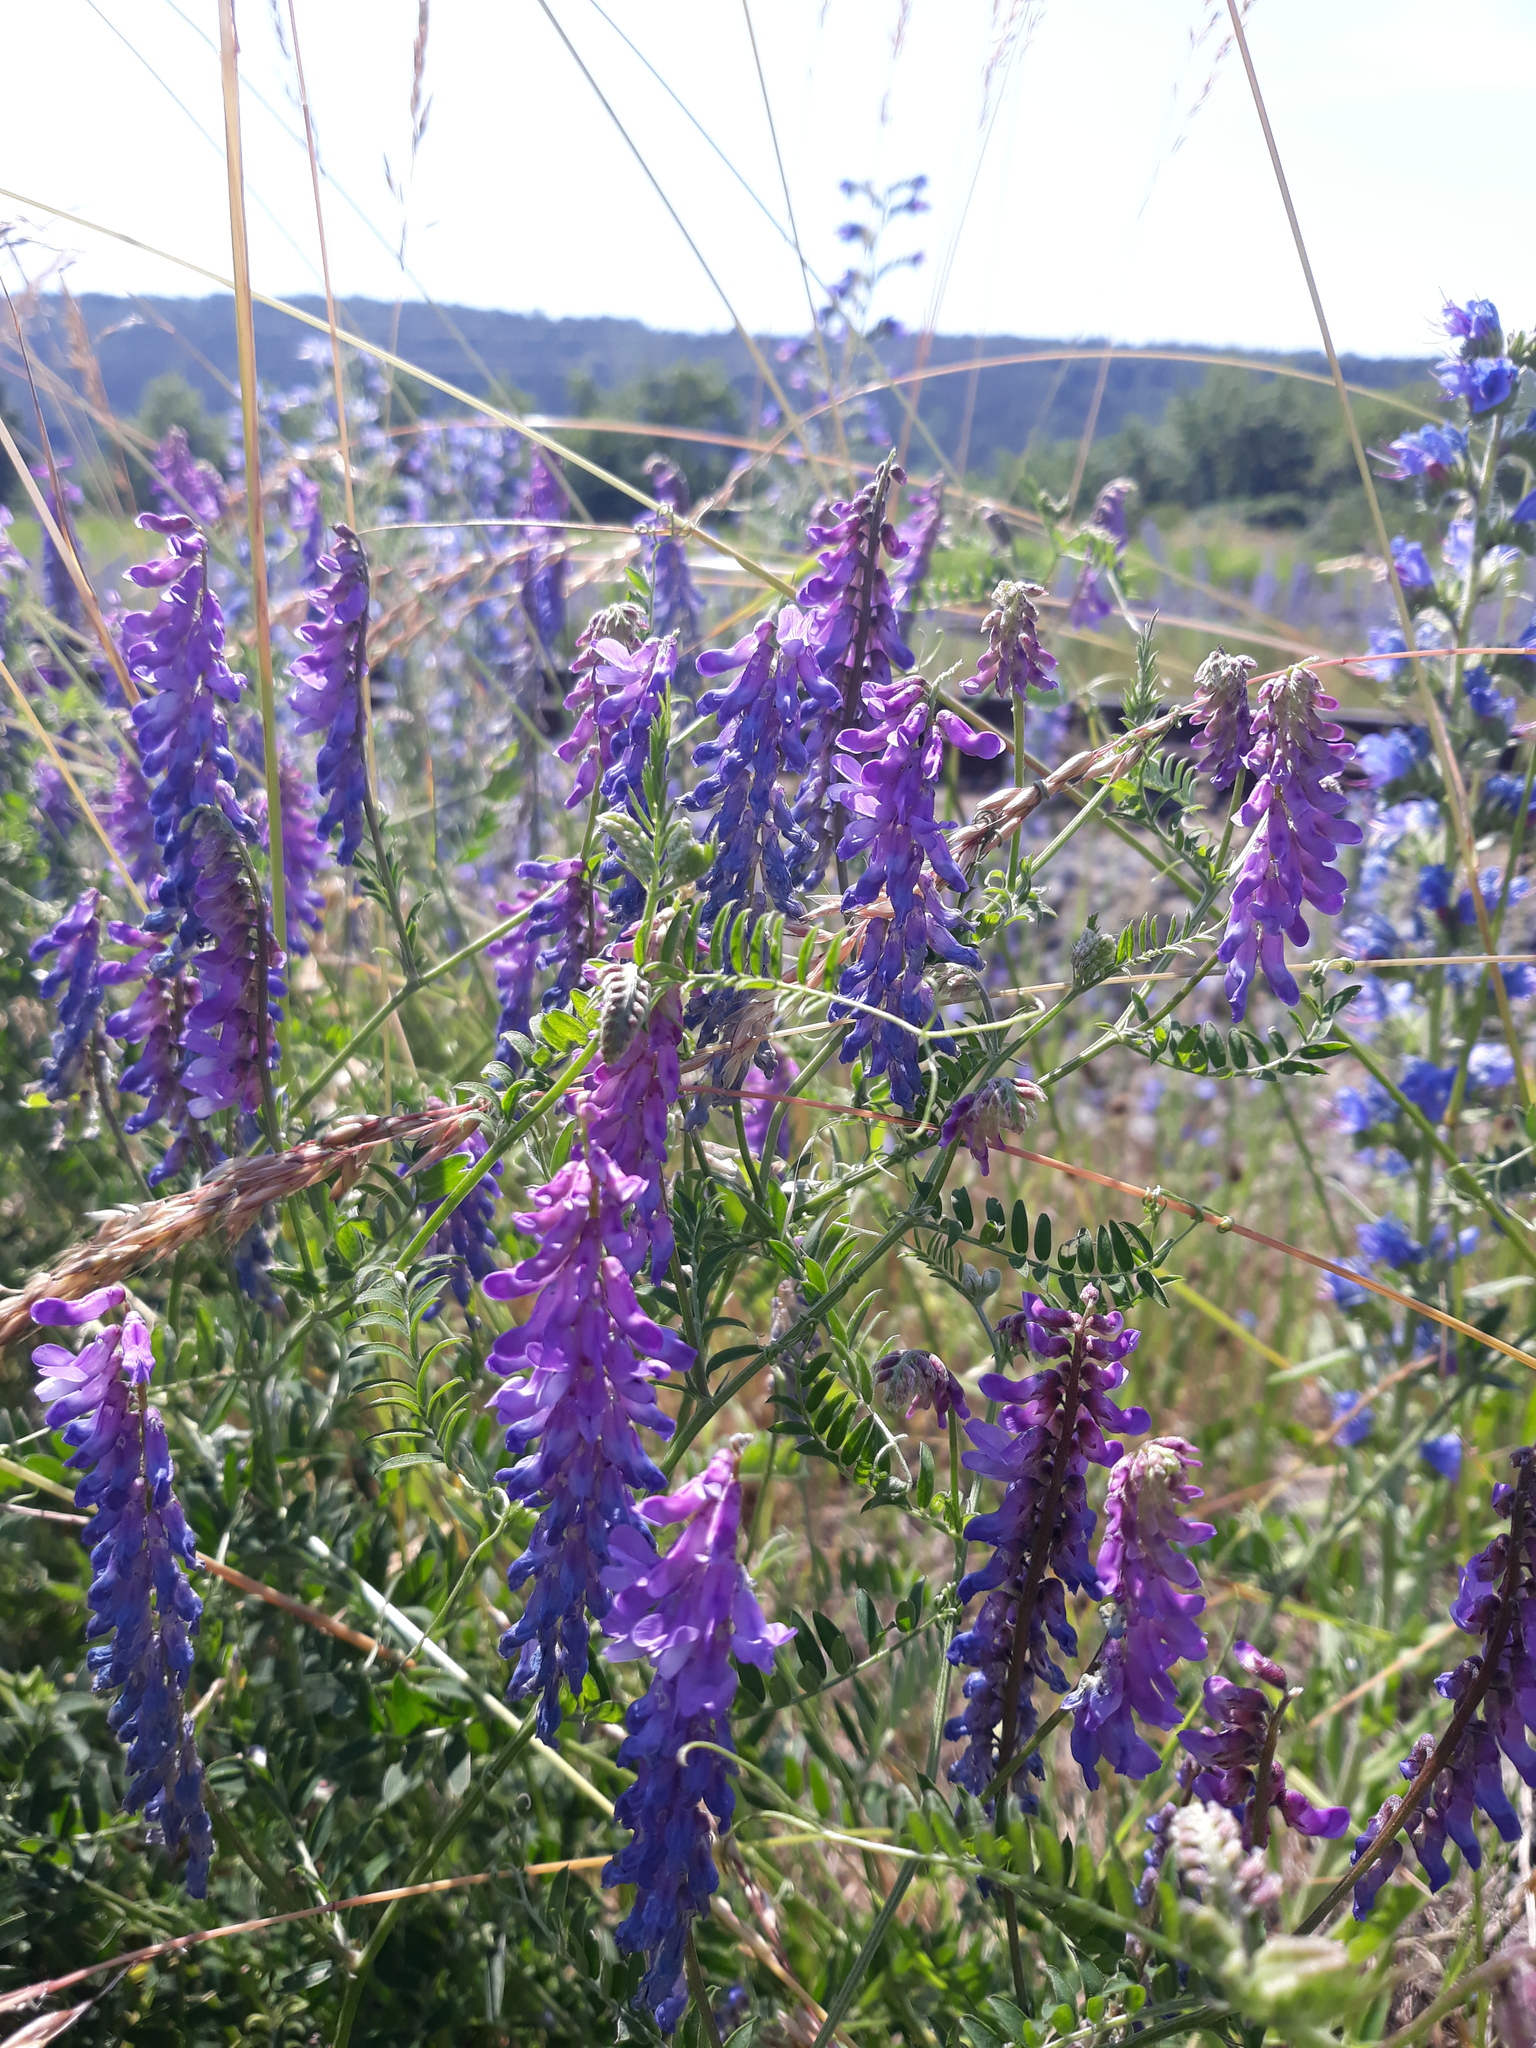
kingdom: Plantae
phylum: Tracheophyta
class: Magnoliopsida
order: Fabales
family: Fabaceae
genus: Vicia
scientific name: Vicia villosa
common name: Fodder vetch
